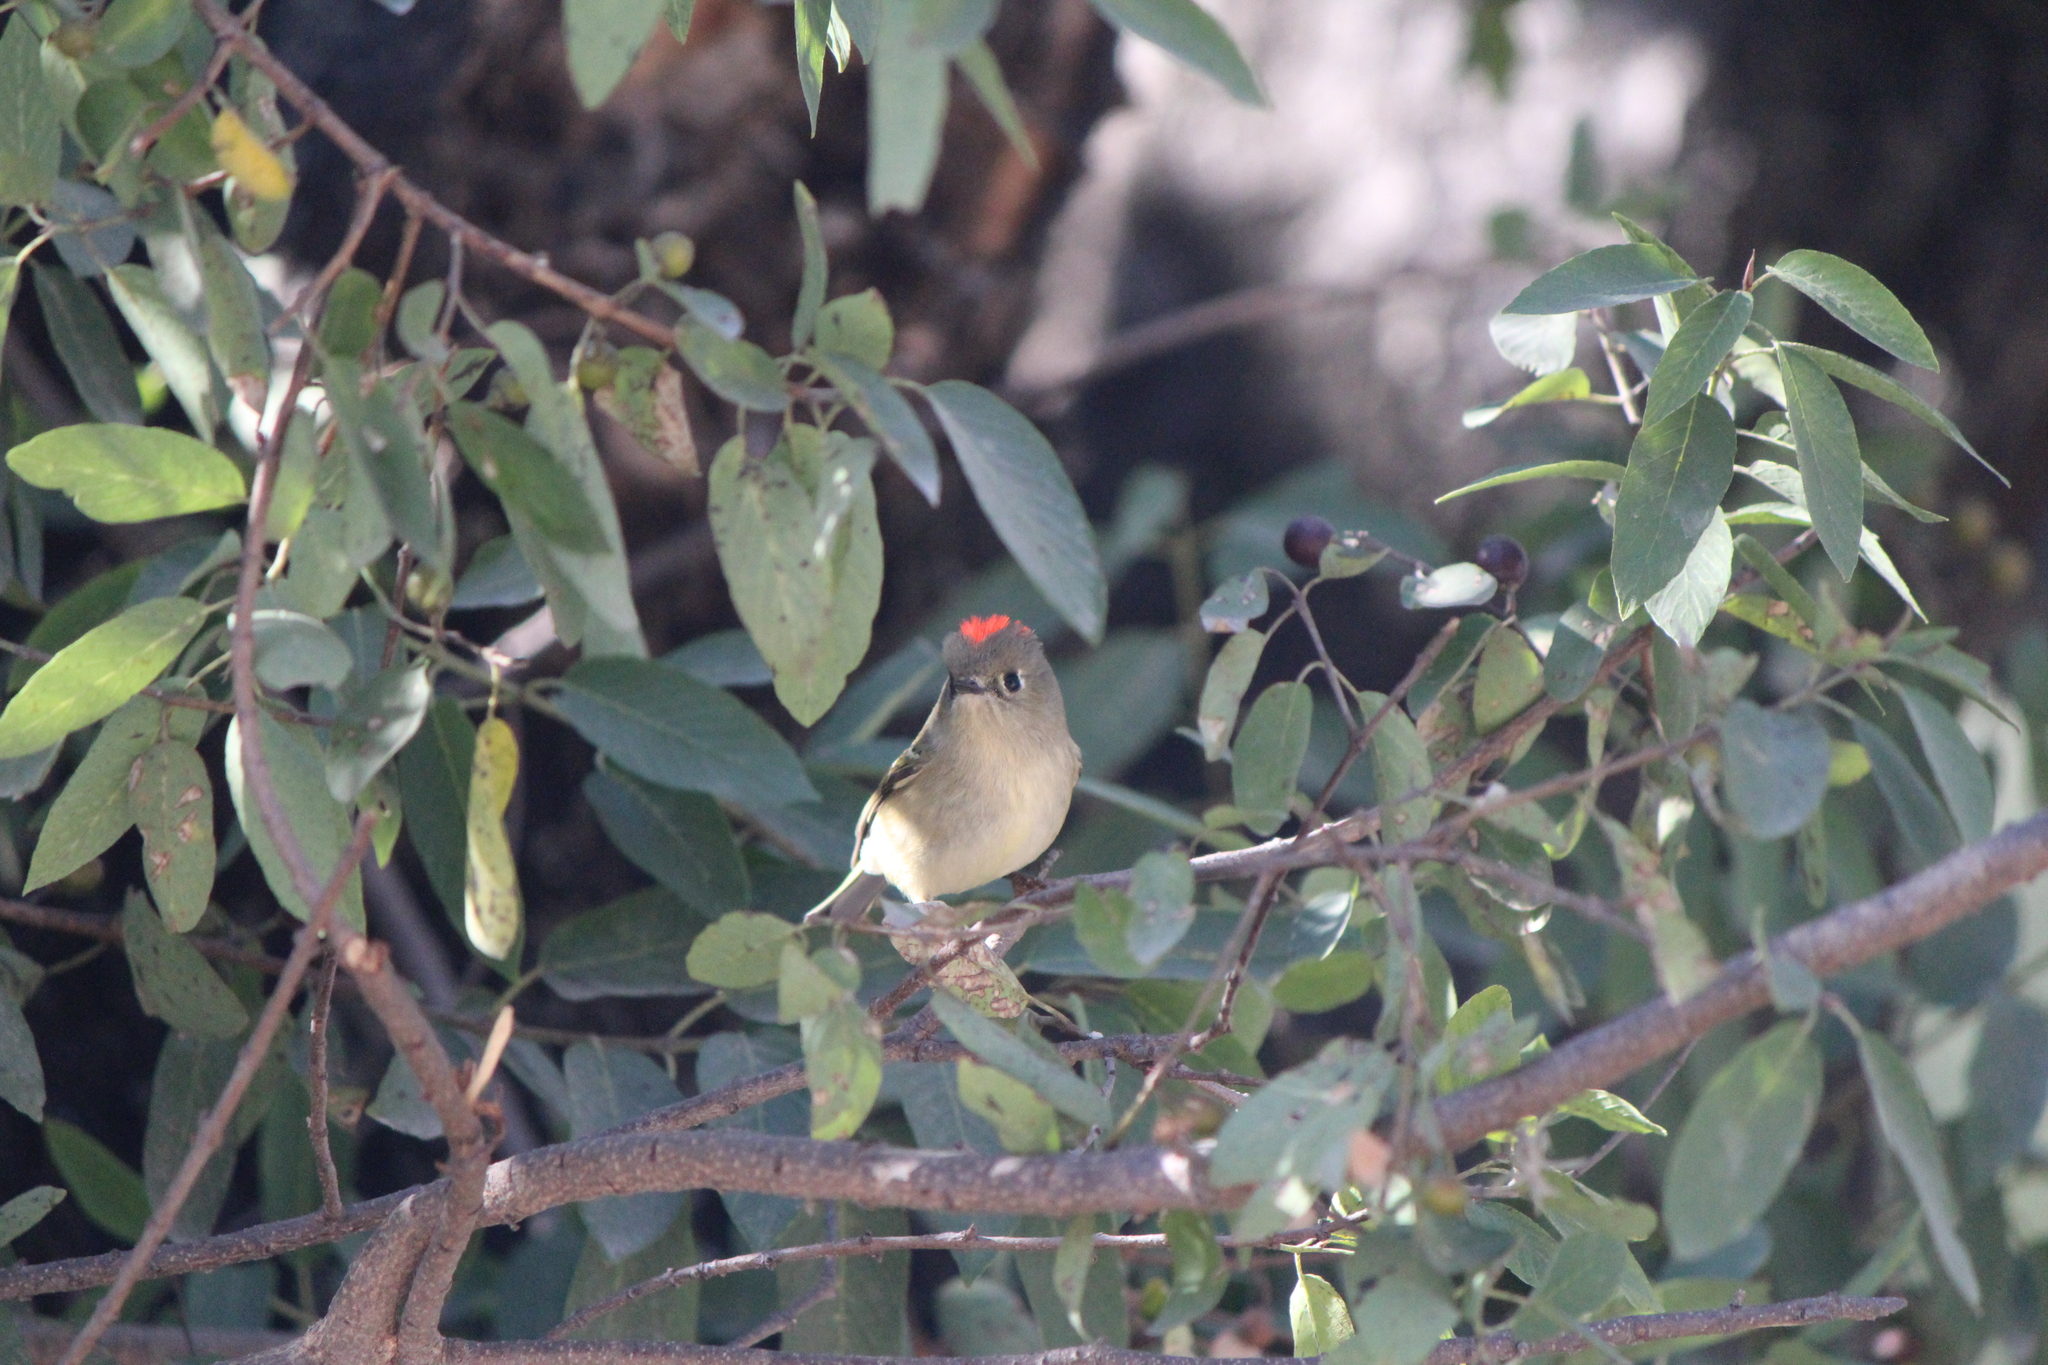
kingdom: Animalia
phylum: Chordata
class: Aves
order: Passeriformes
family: Regulidae
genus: Regulus
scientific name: Regulus calendula
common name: Ruby-crowned kinglet
